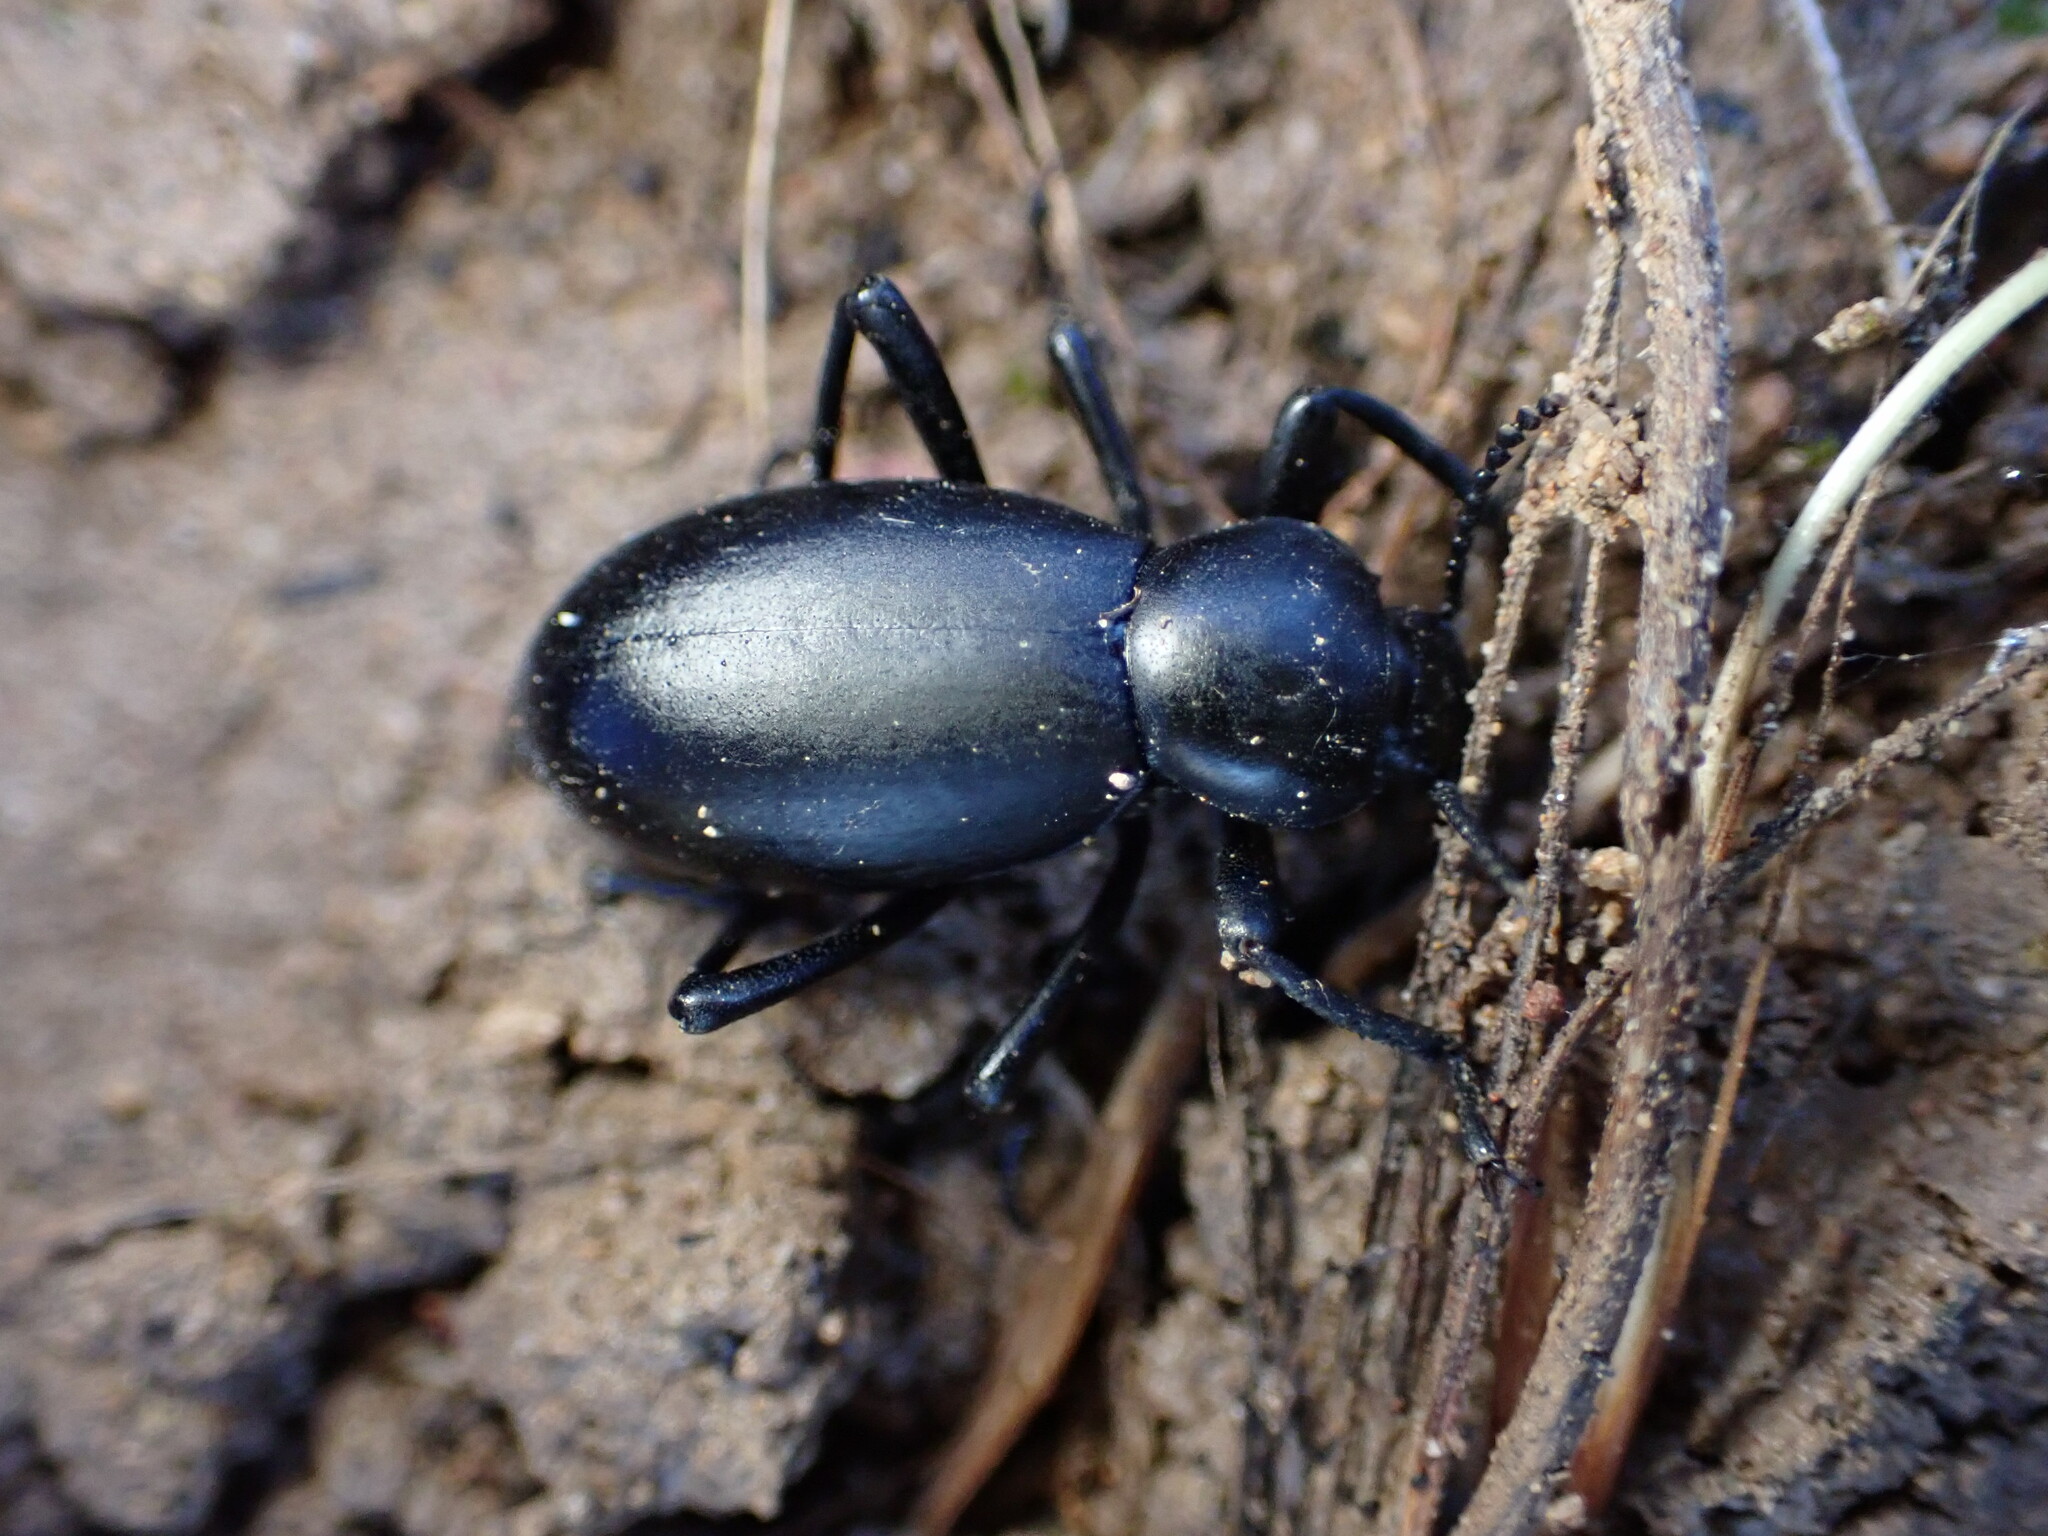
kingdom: Animalia
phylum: Arthropoda
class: Insecta
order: Coleoptera
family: Tenebrionidae
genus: Eleodes
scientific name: Eleodes dentipes
